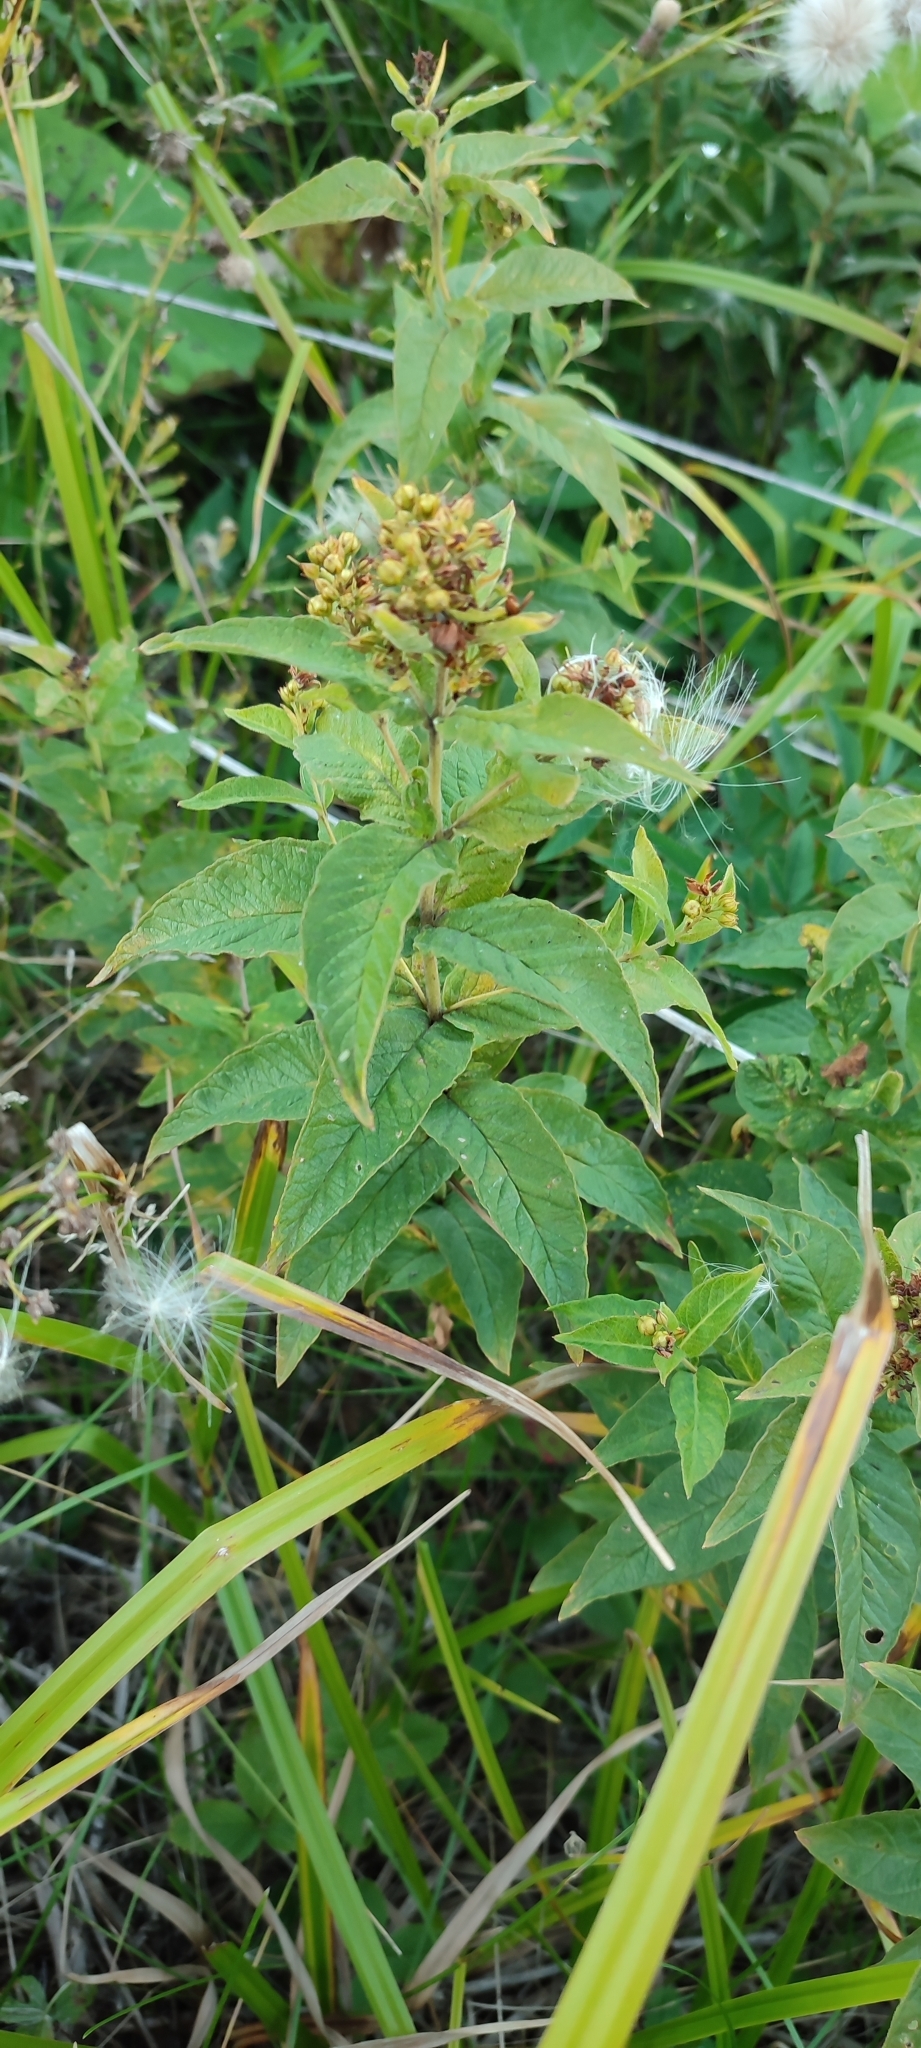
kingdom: Plantae
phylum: Tracheophyta
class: Magnoliopsida
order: Ericales
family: Primulaceae
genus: Lysimachia
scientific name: Lysimachia vulgaris
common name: Yellow loosestrife
